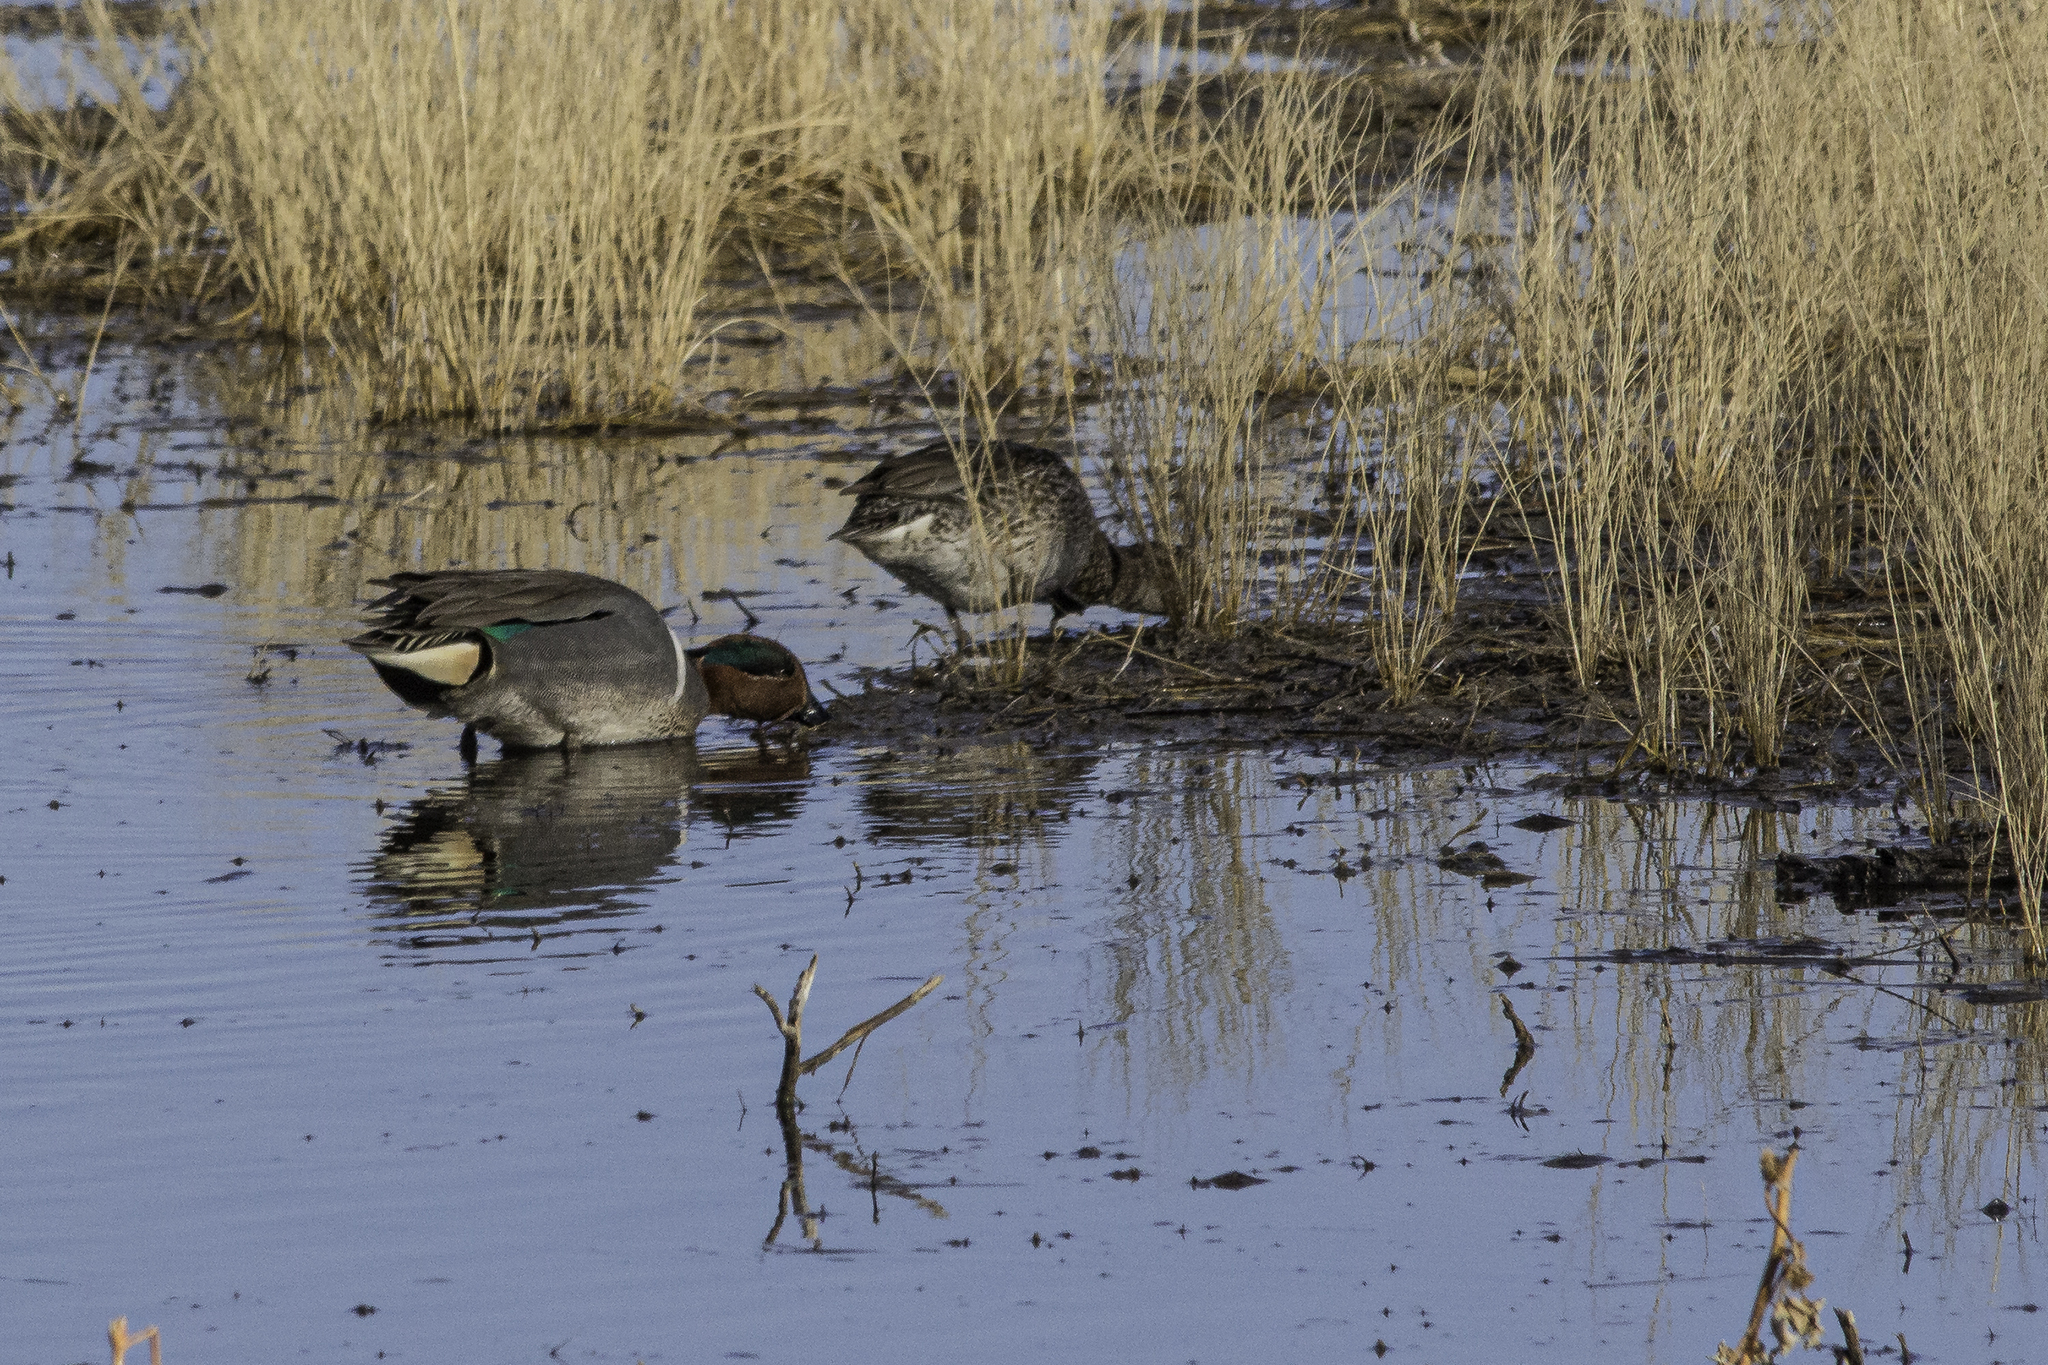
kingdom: Animalia
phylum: Chordata
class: Aves
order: Anseriformes
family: Anatidae
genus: Anas
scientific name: Anas crecca
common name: Eurasian teal
